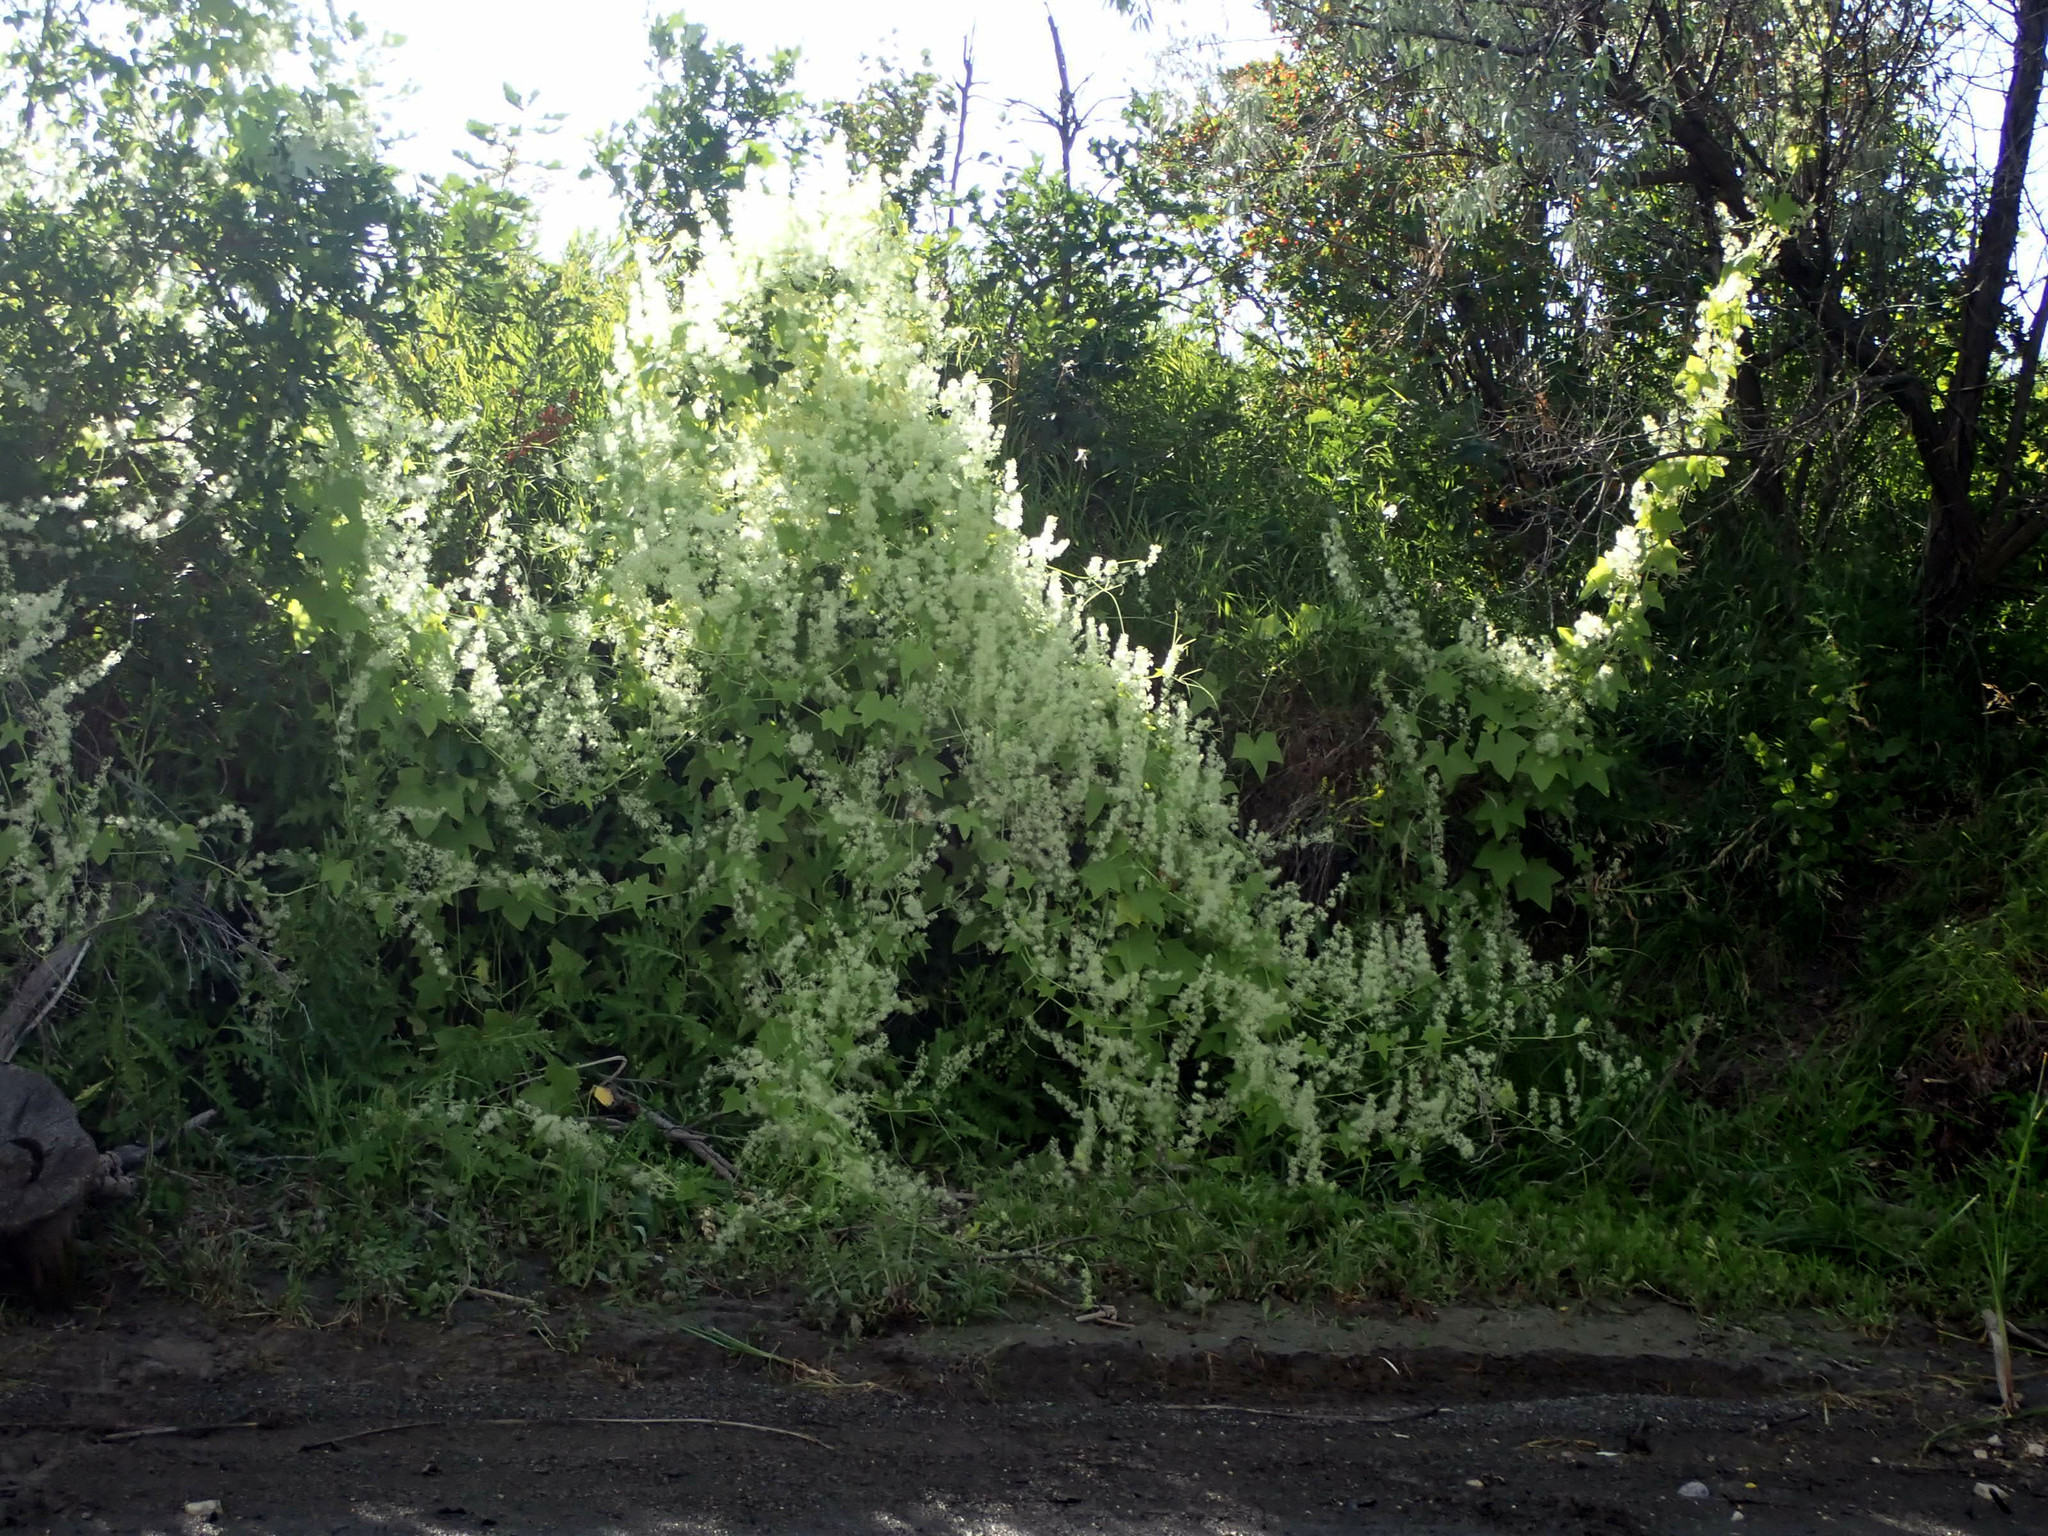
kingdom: Plantae
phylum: Tracheophyta
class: Magnoliopsida
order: Cucurbitales
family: Cucurbitaceae
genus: Echinocystis
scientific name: Echinocystis lobata
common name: Wild cucumber
